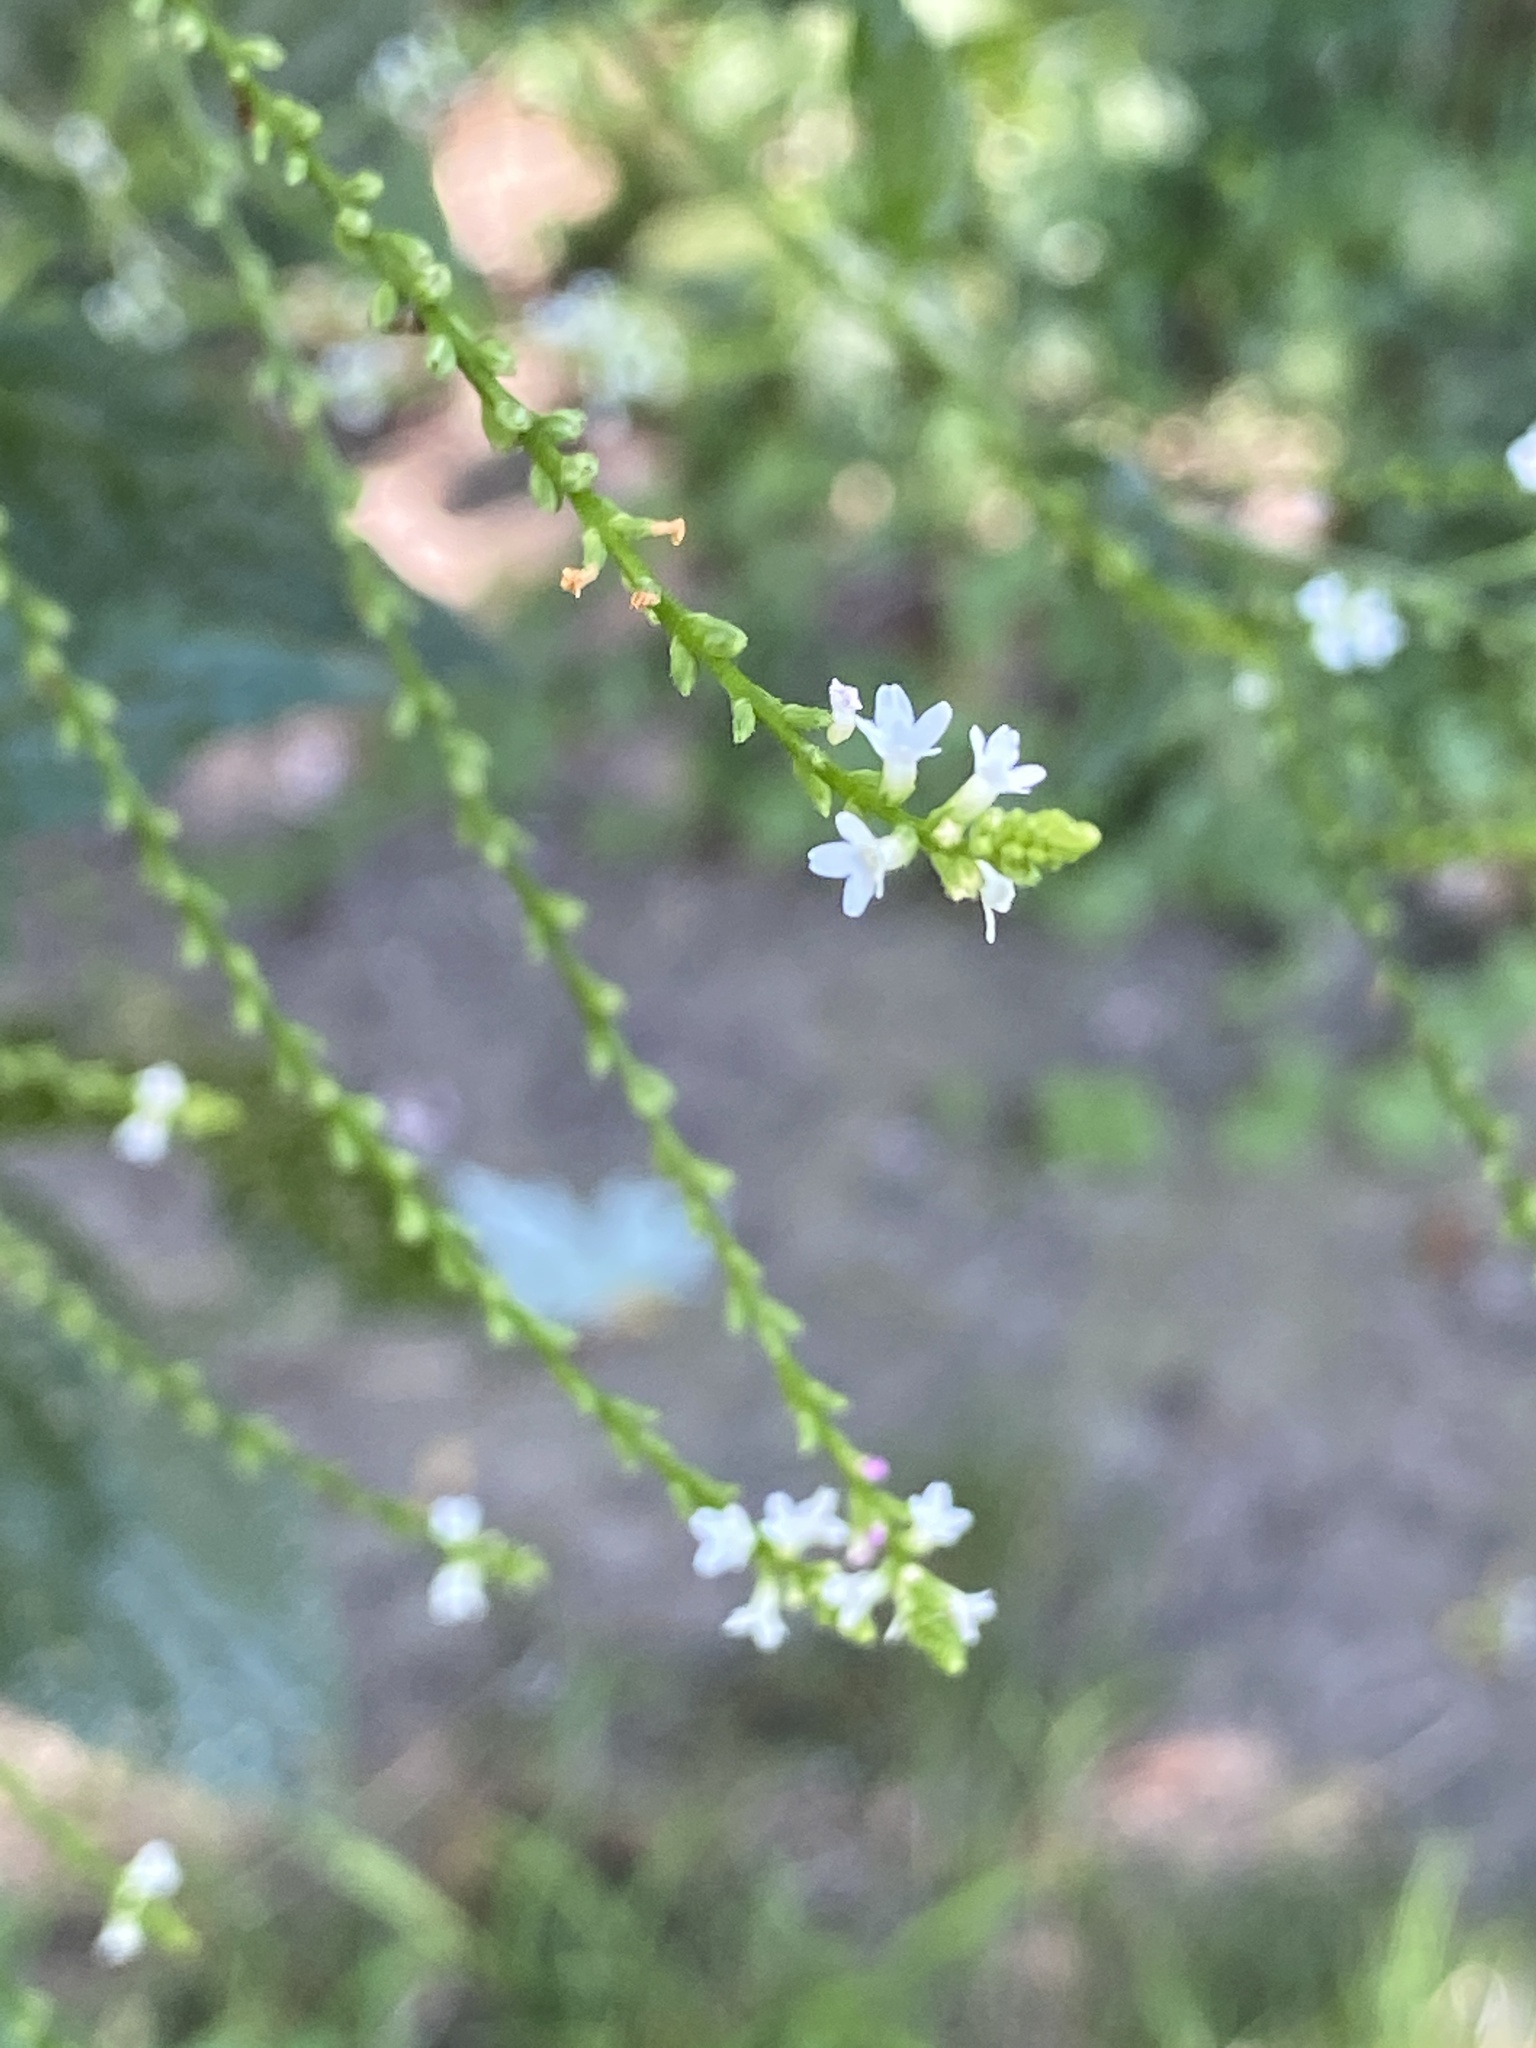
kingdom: Plantae
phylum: Tracheophyta
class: Magnoliopsida
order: Lamiales
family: Verbenaceae
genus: Verbena
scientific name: Verbena urticifolia
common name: Nettle-leaved vervain
